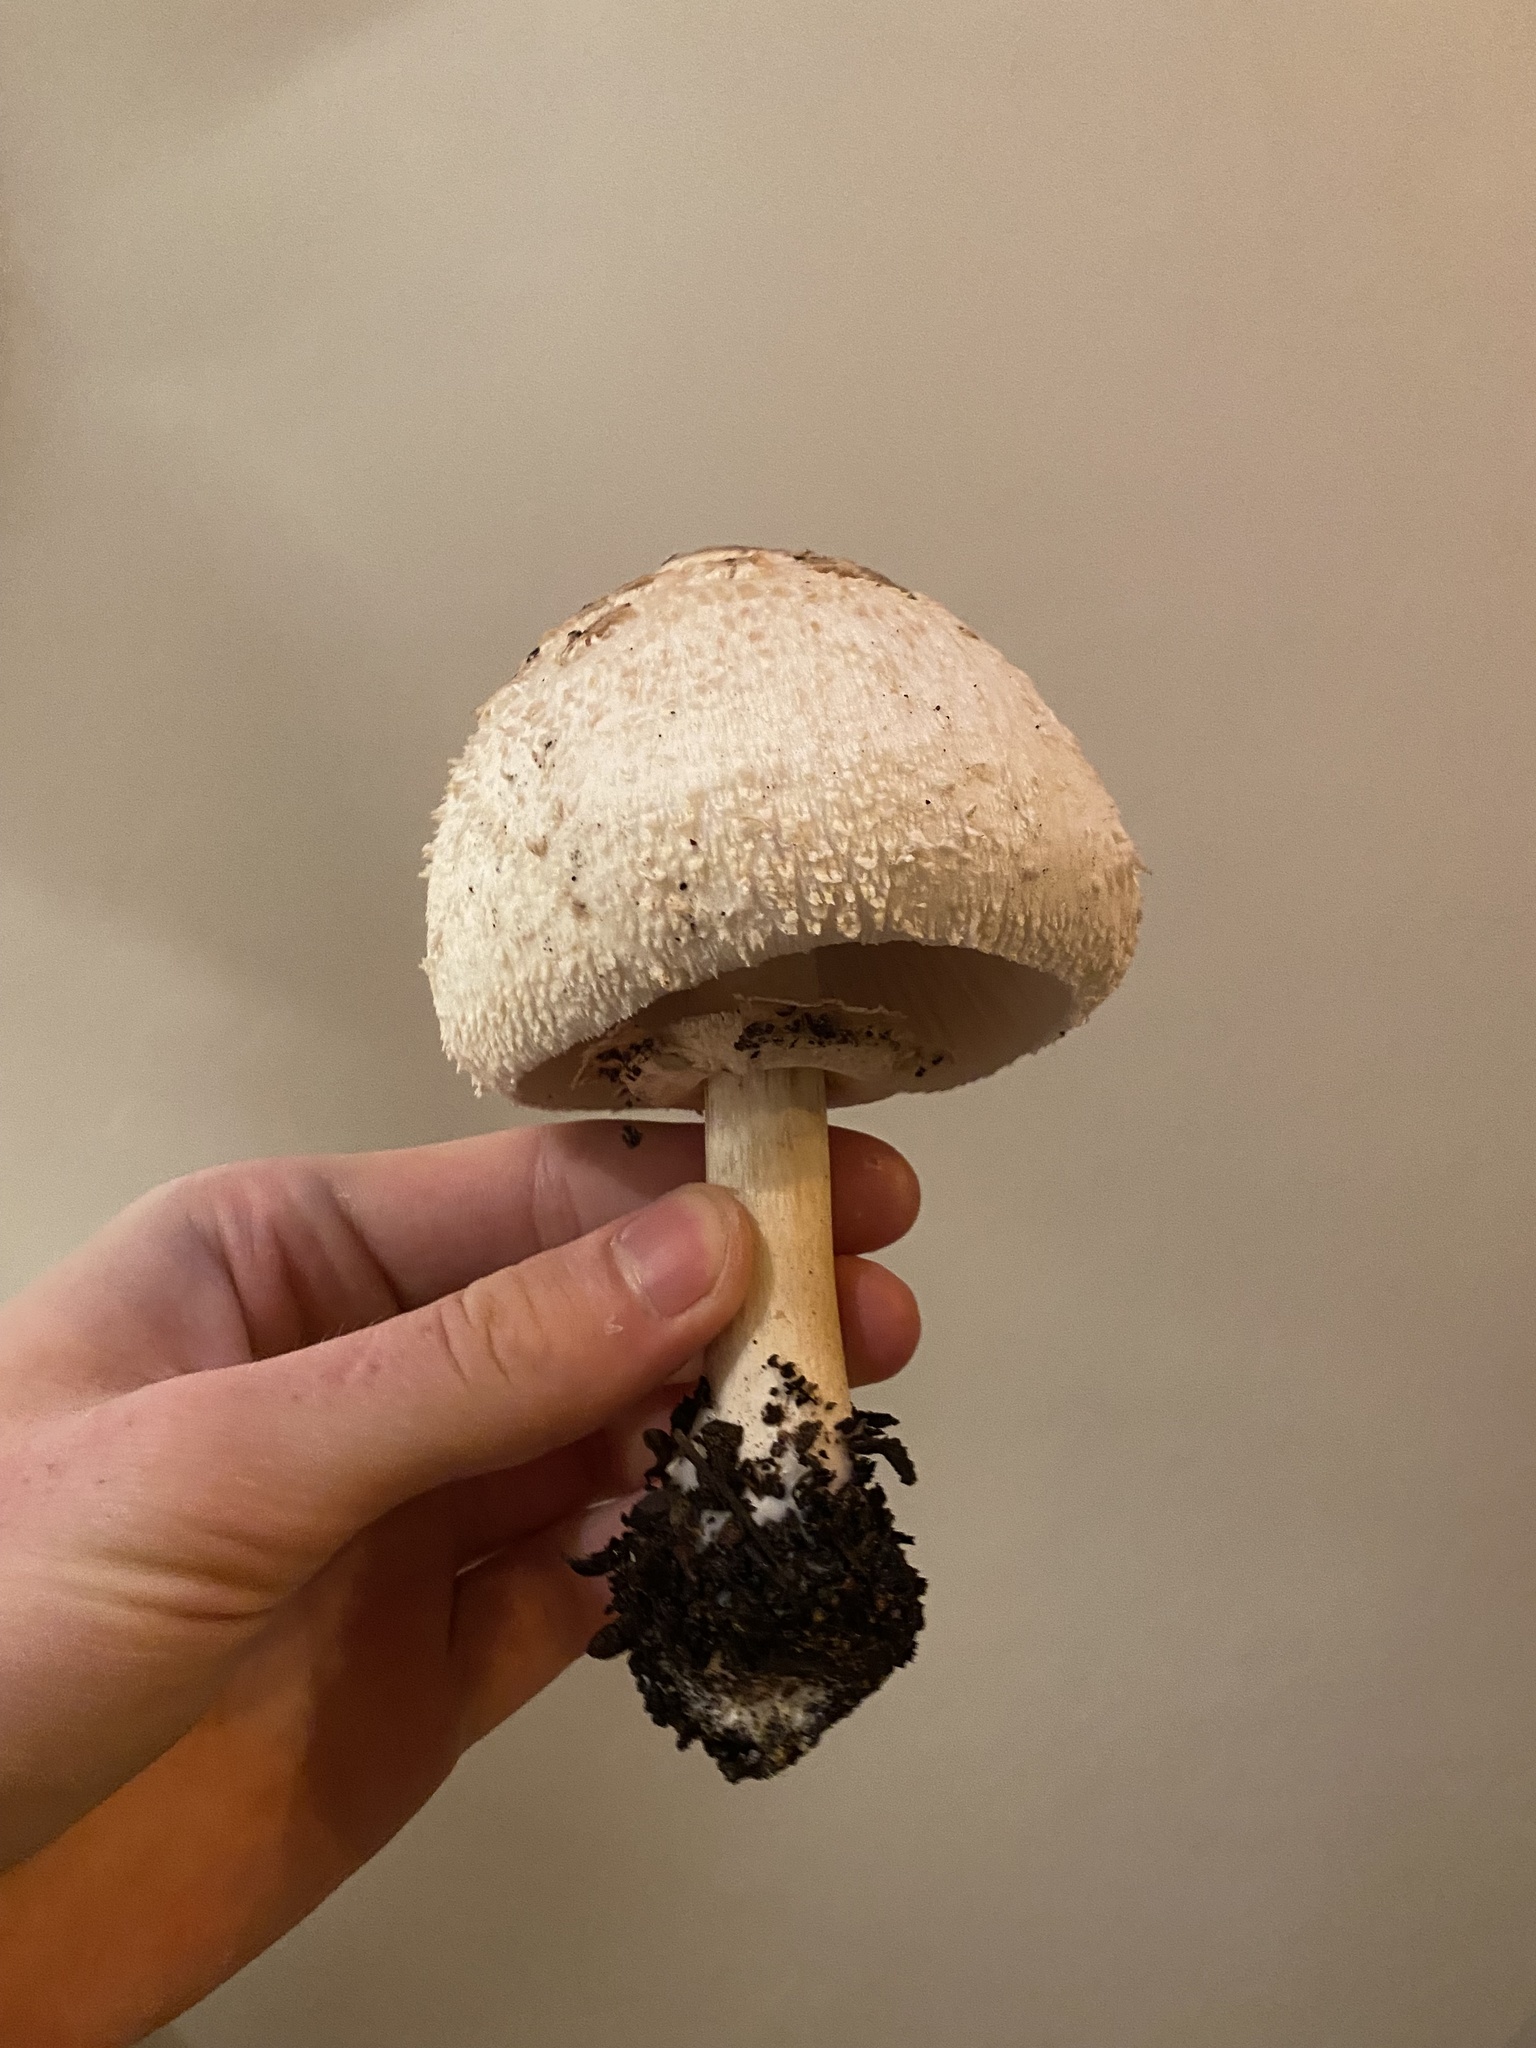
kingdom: Fungi
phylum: Basidiomycota
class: Agaricomycetes
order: Agaricales
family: Agaricaceae
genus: Chlorophyllum
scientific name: Chlorophyllum molybdites
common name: False parasol
